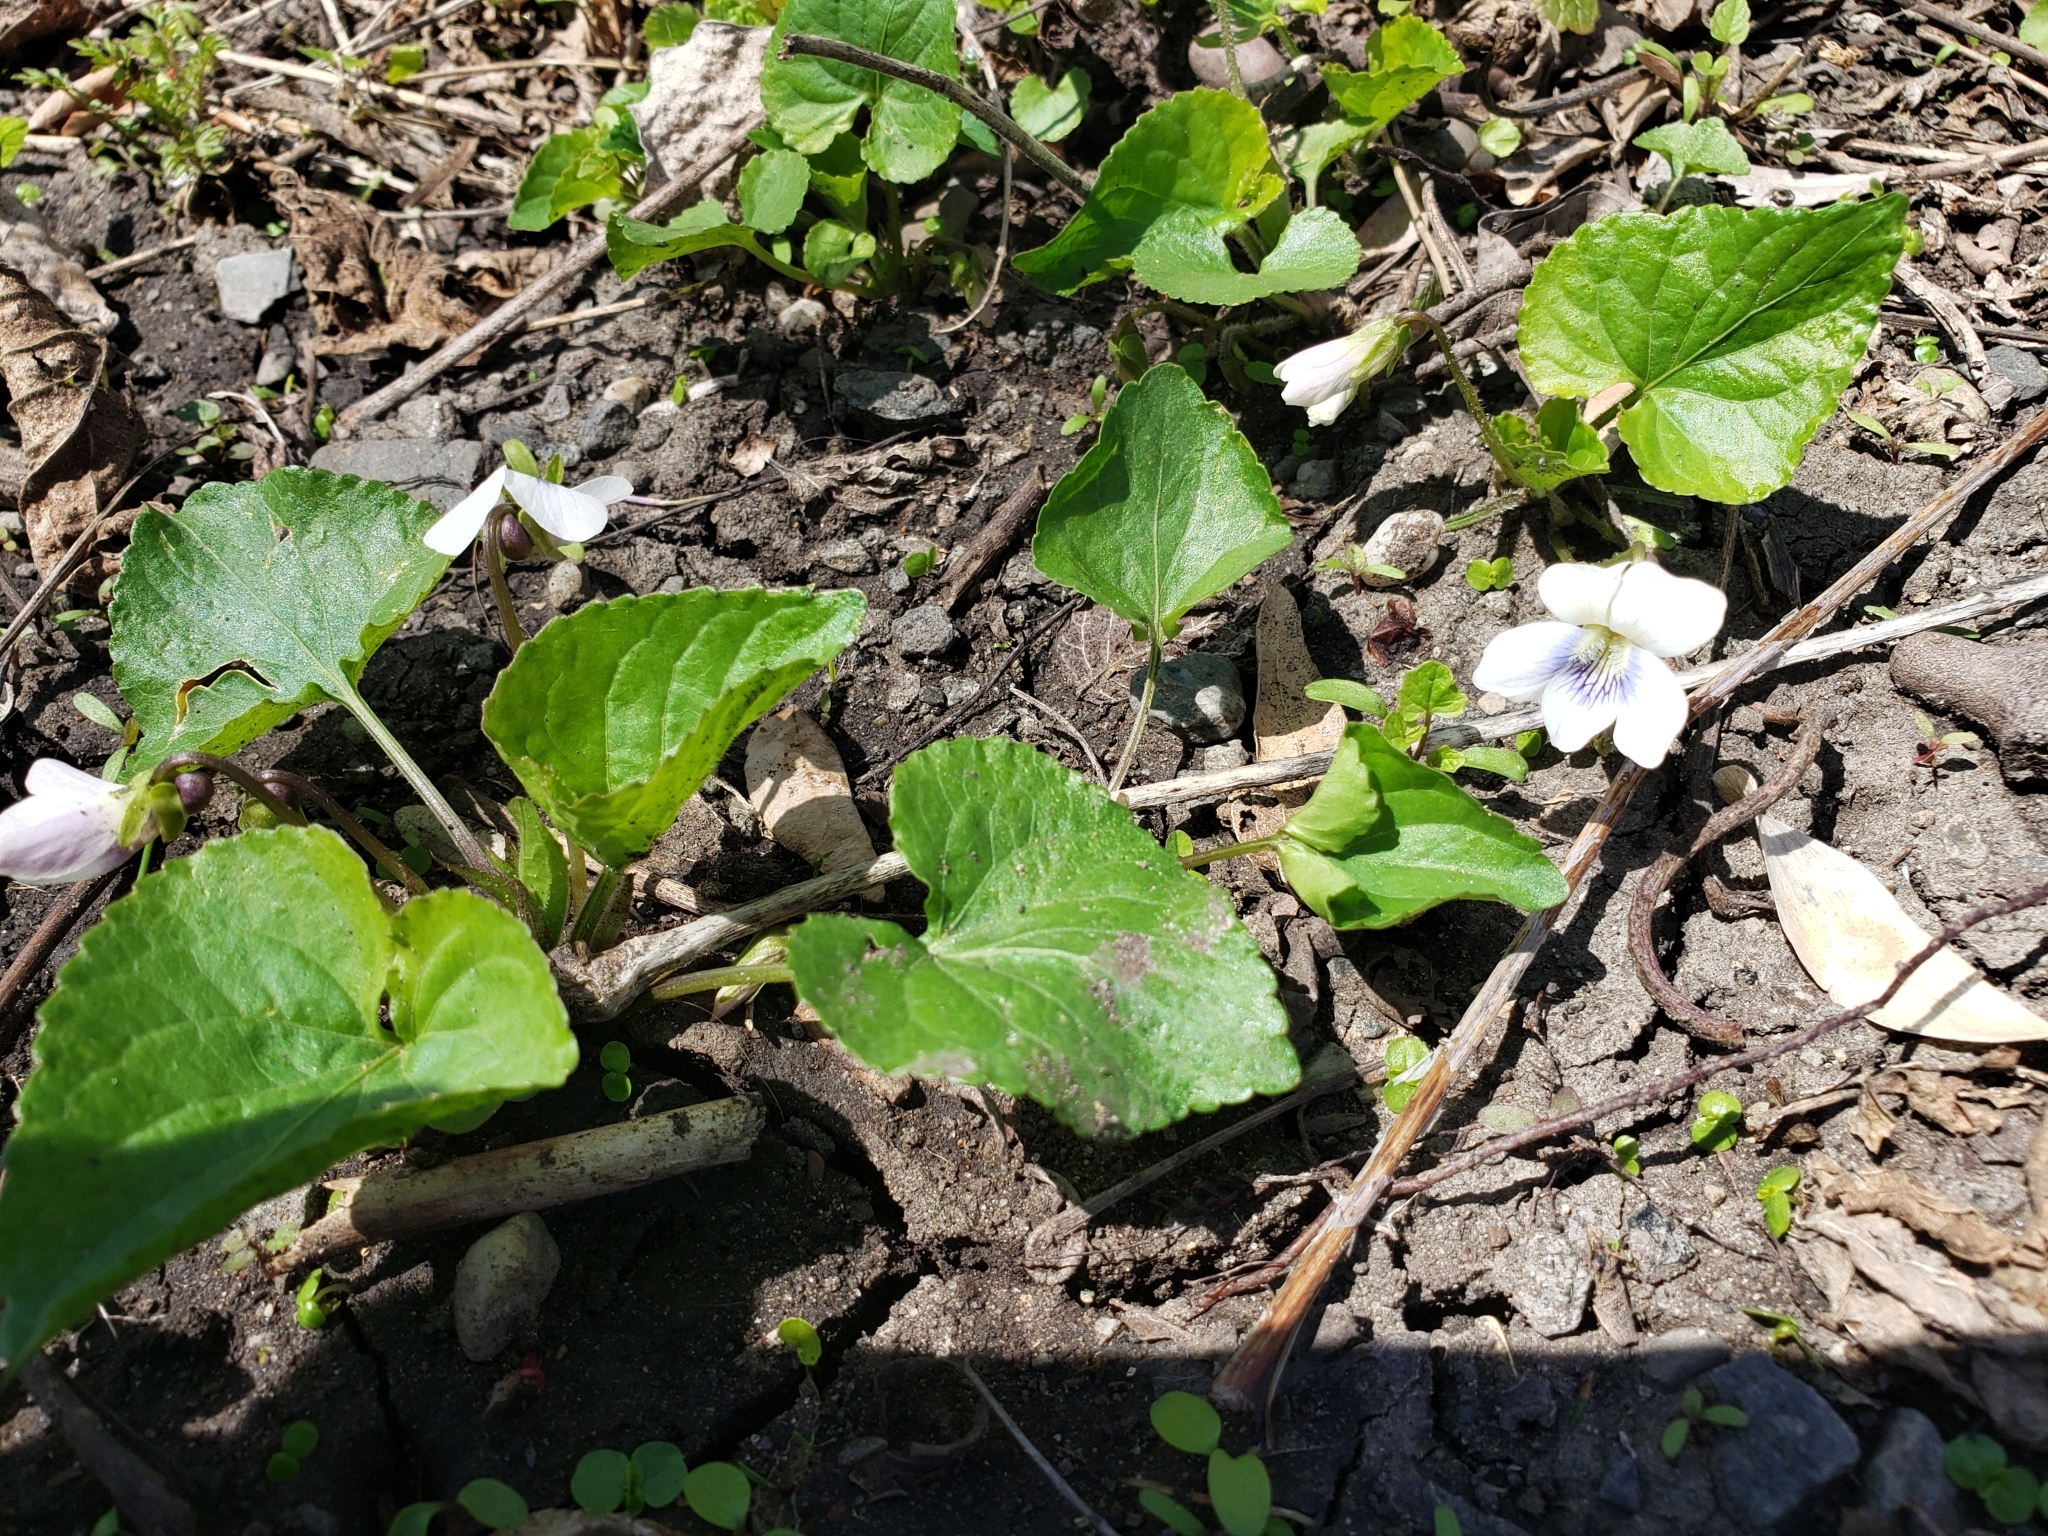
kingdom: Plantae
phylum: Tracheophyta
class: Magnoliopsida
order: Malpighiales
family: Violaceae
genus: Viola
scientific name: Viola sororia
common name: Dooryard violet
